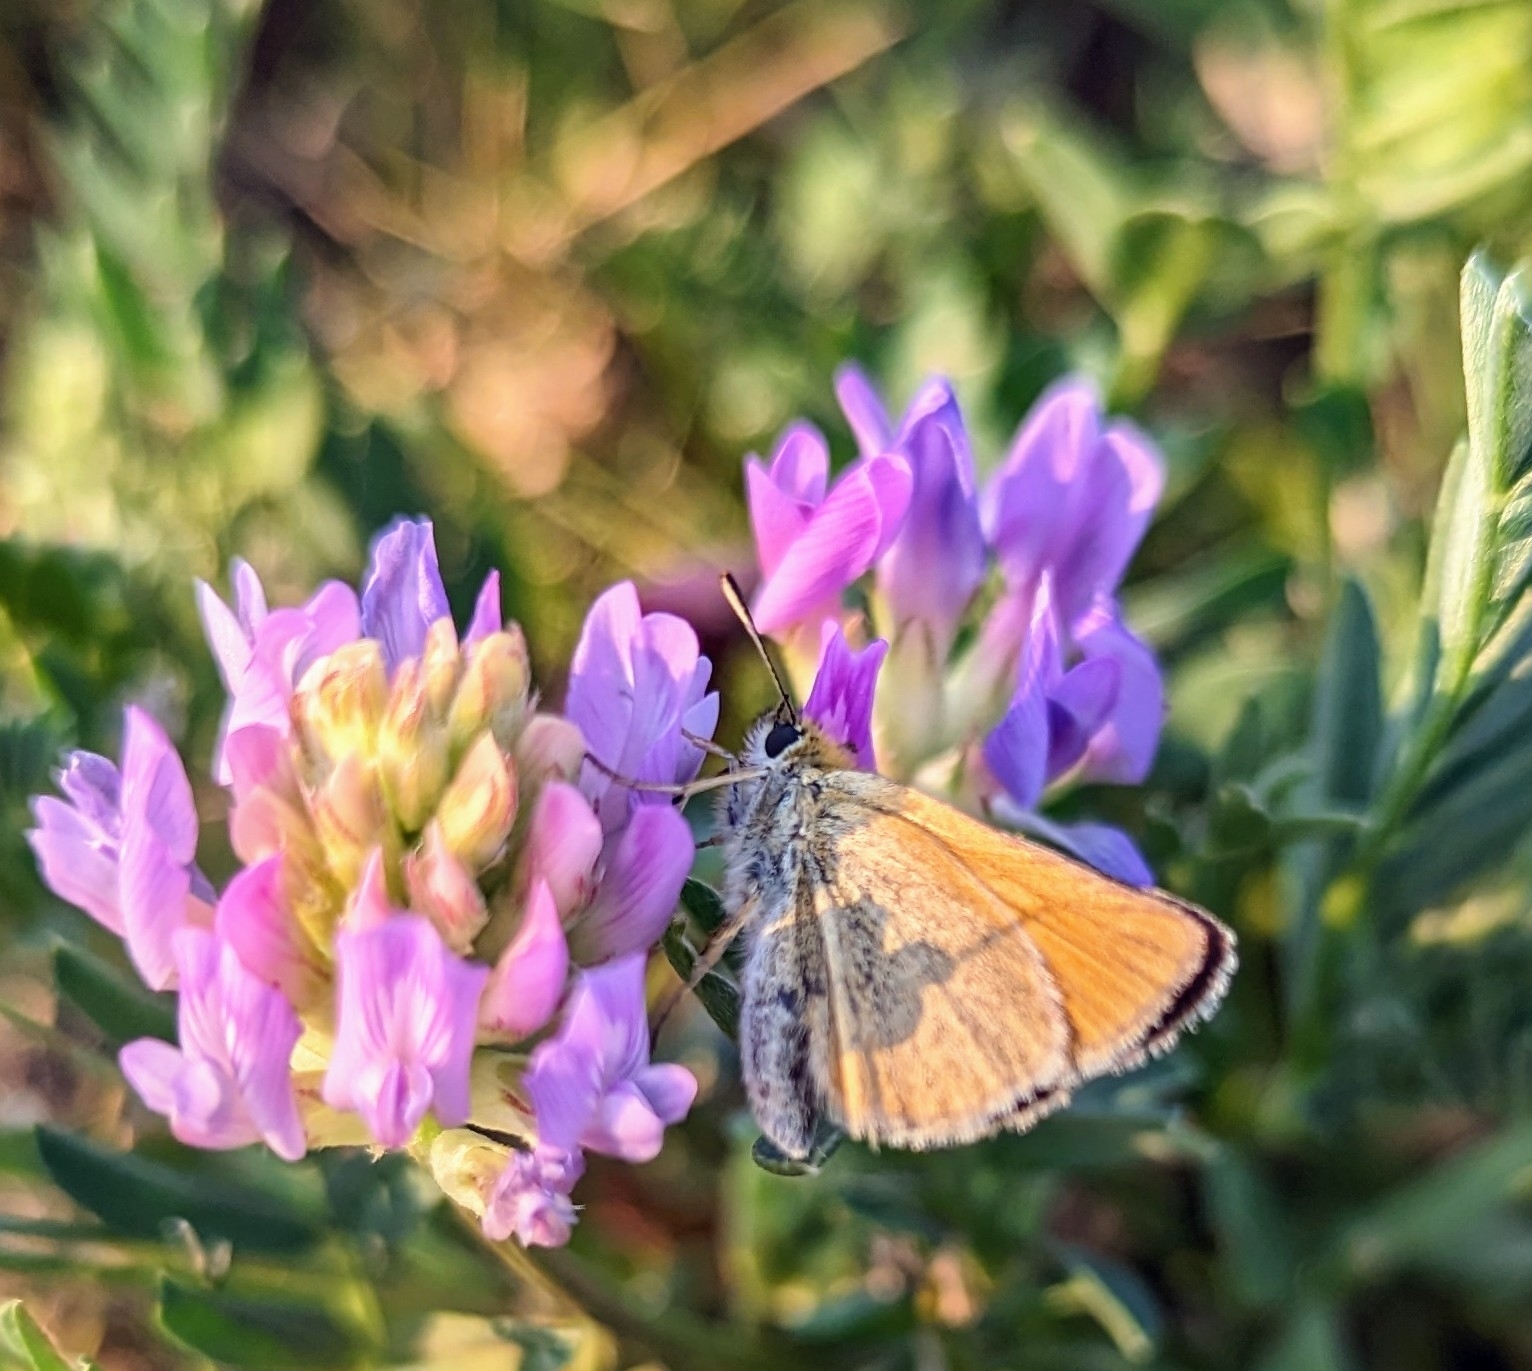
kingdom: Animalia
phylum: Arthropoda
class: Insecta
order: Lepidoptera
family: Hesperiidae
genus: Thymelicus
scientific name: Thymelicus lineola
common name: Essex skipper
